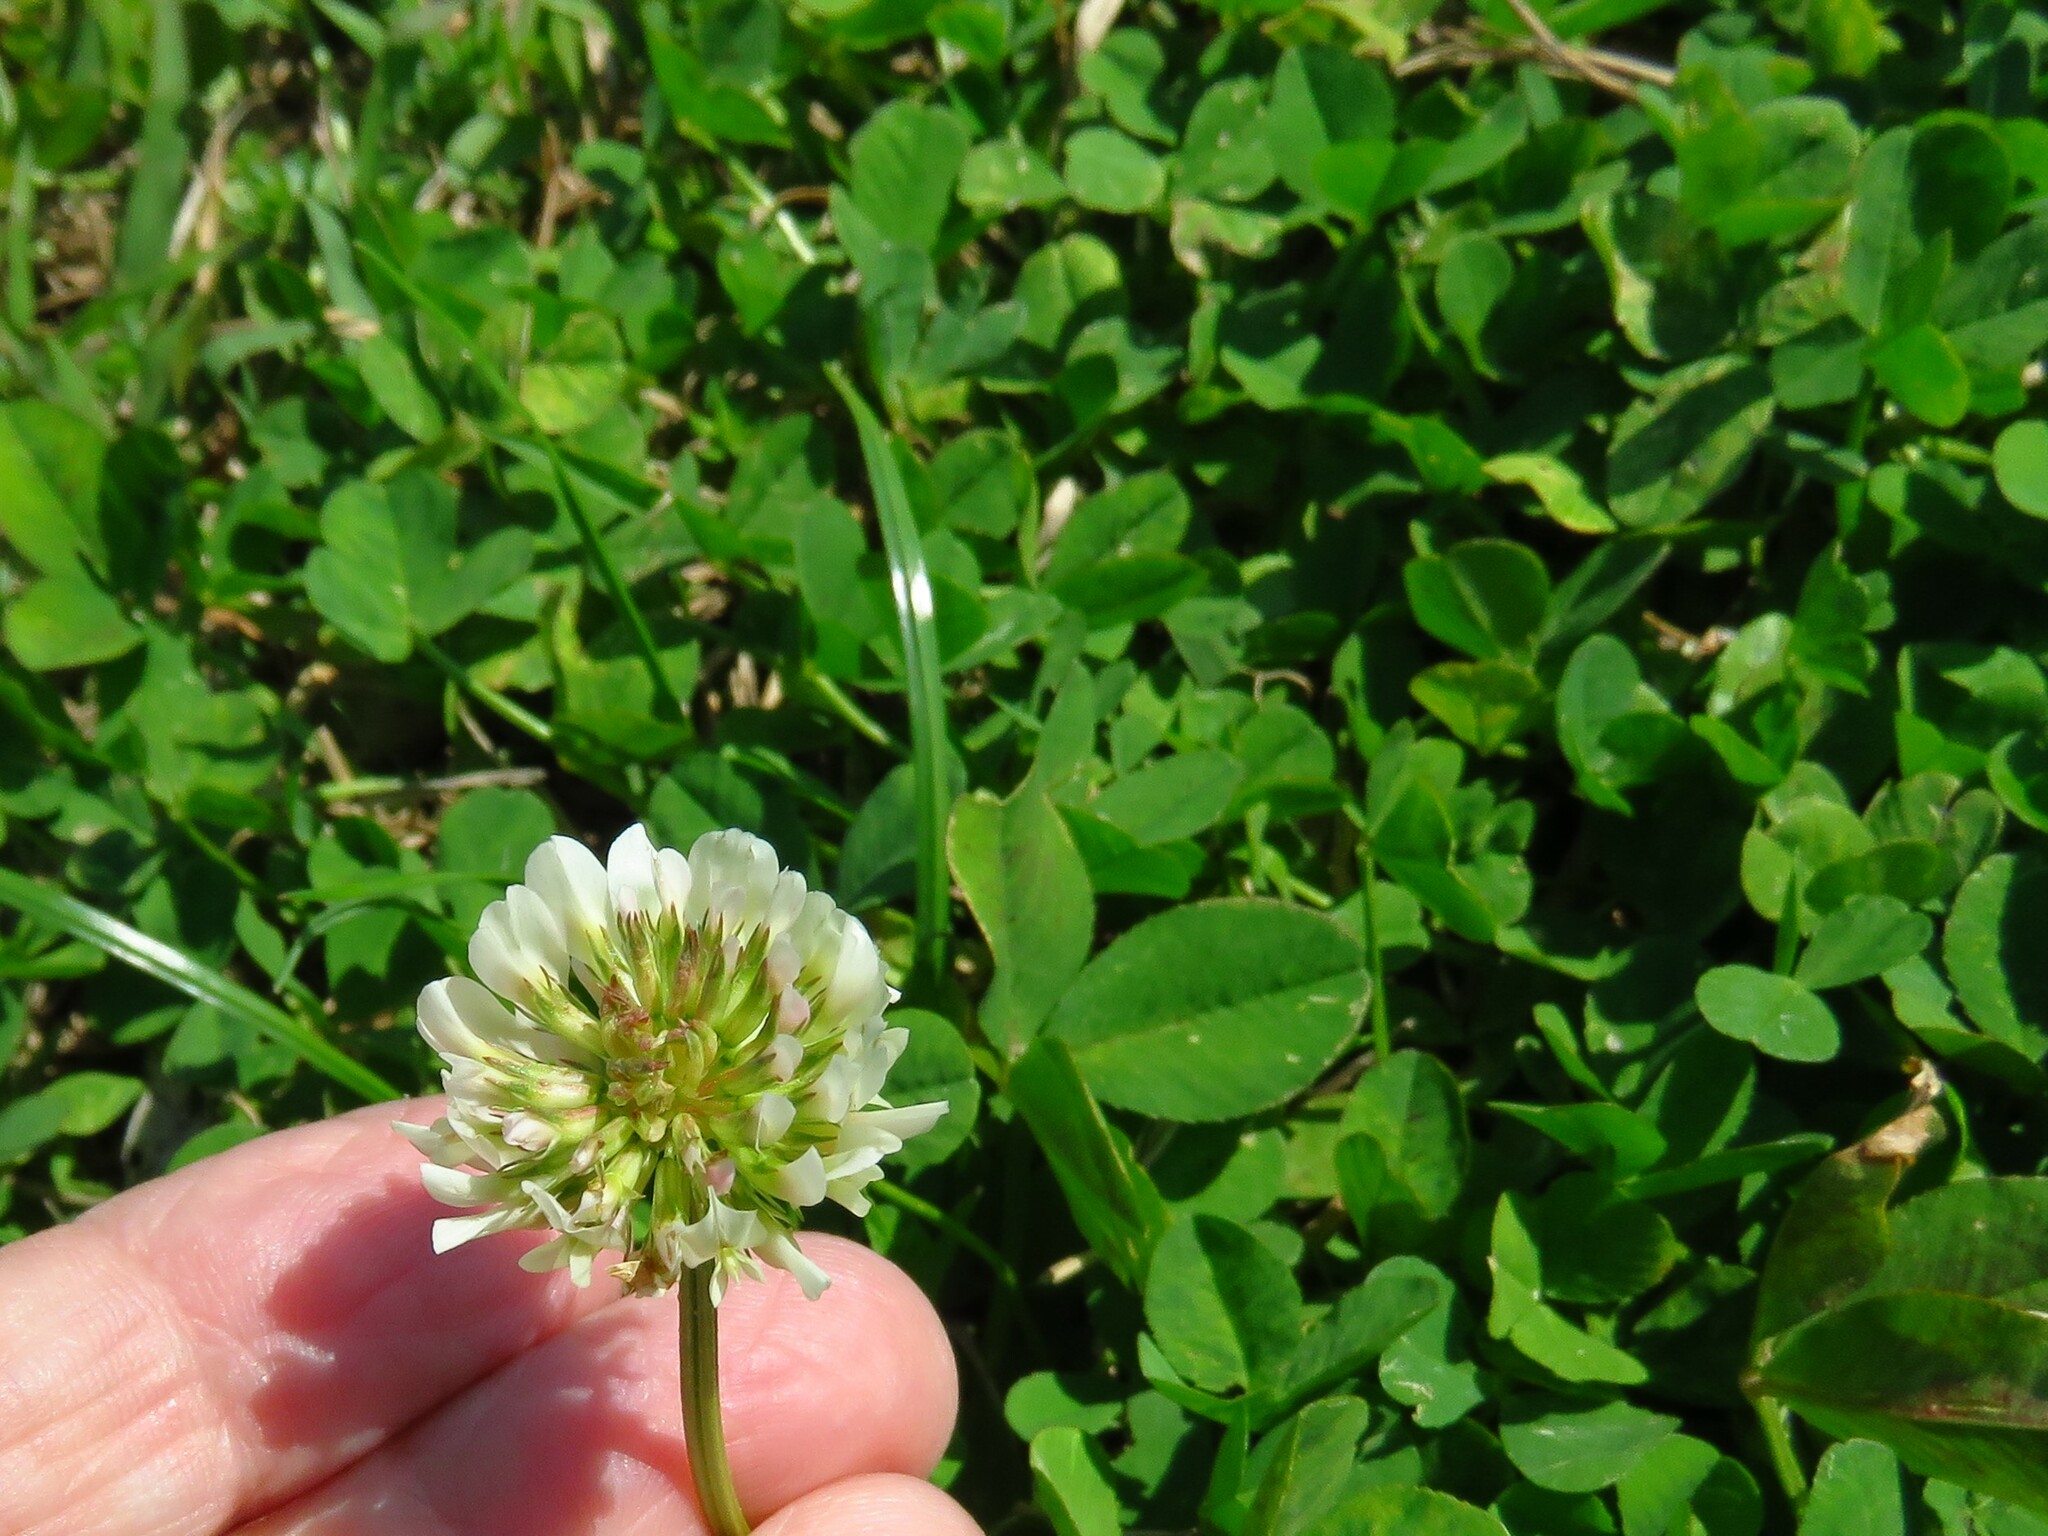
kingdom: Plantae
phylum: Tracheophyta
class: Magnoliopsida
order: Fabales
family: Fabaceae
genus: Trifolium
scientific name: Trifolium repens
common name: White clover
